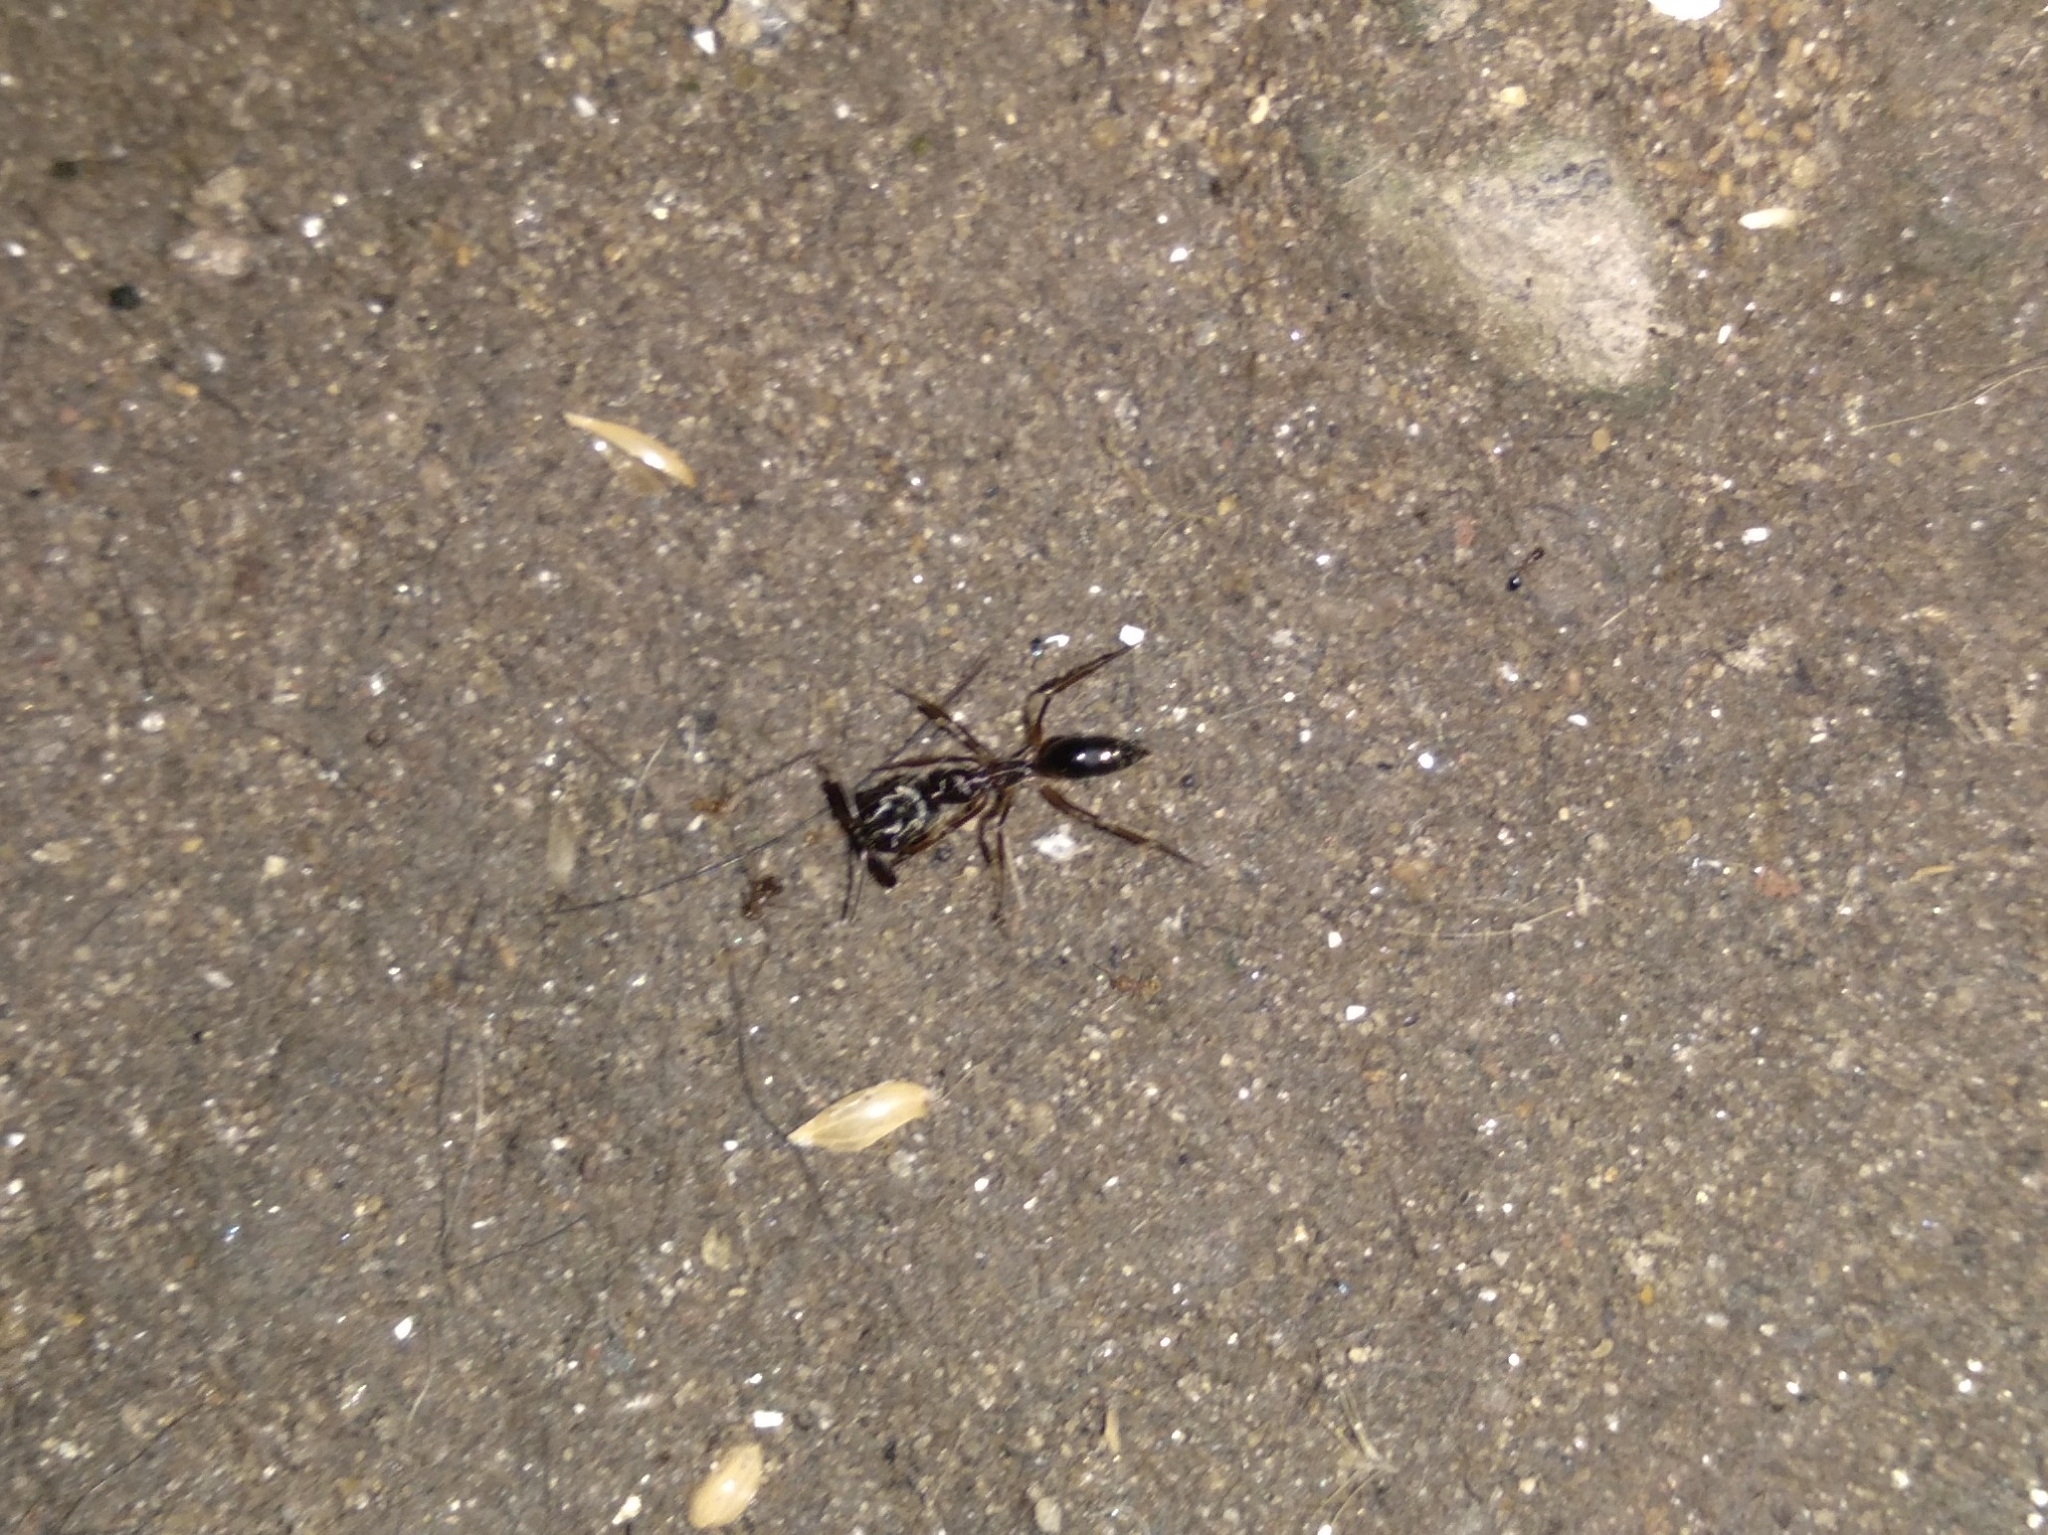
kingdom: Animalia
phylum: Arthropoda
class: Insecta
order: Hymenoptera
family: Formicidae
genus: Odontomachus
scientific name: Odontomachus
